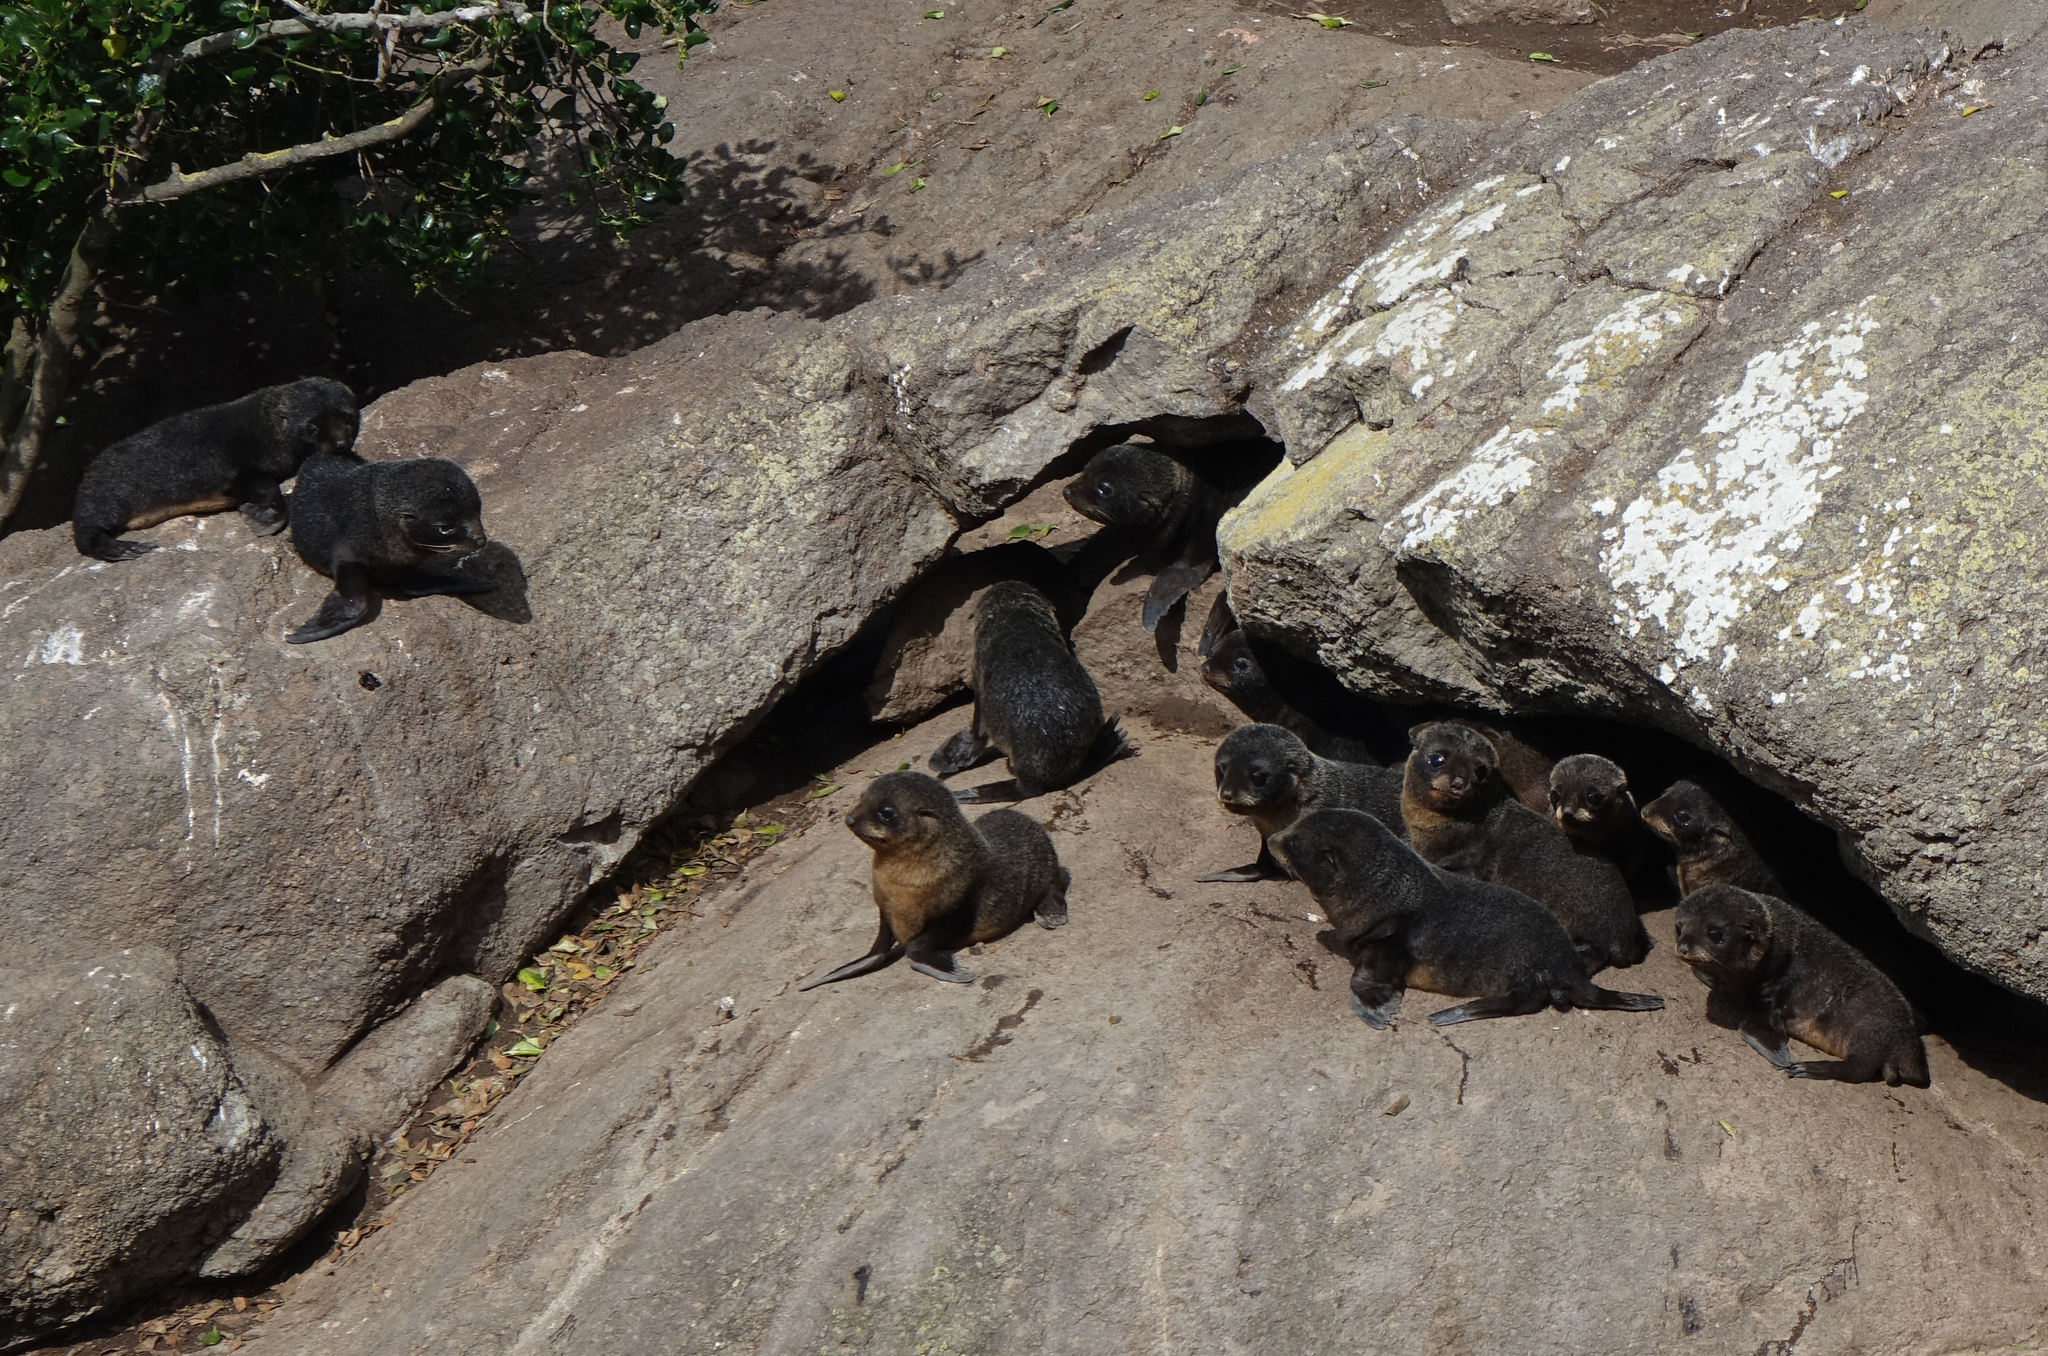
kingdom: Animalia
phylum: Chordata
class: Mammalia
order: Carnivora
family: Otariidae
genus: Arctocephalus
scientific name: Arctocephalus forsteri
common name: New zealand fur seal
